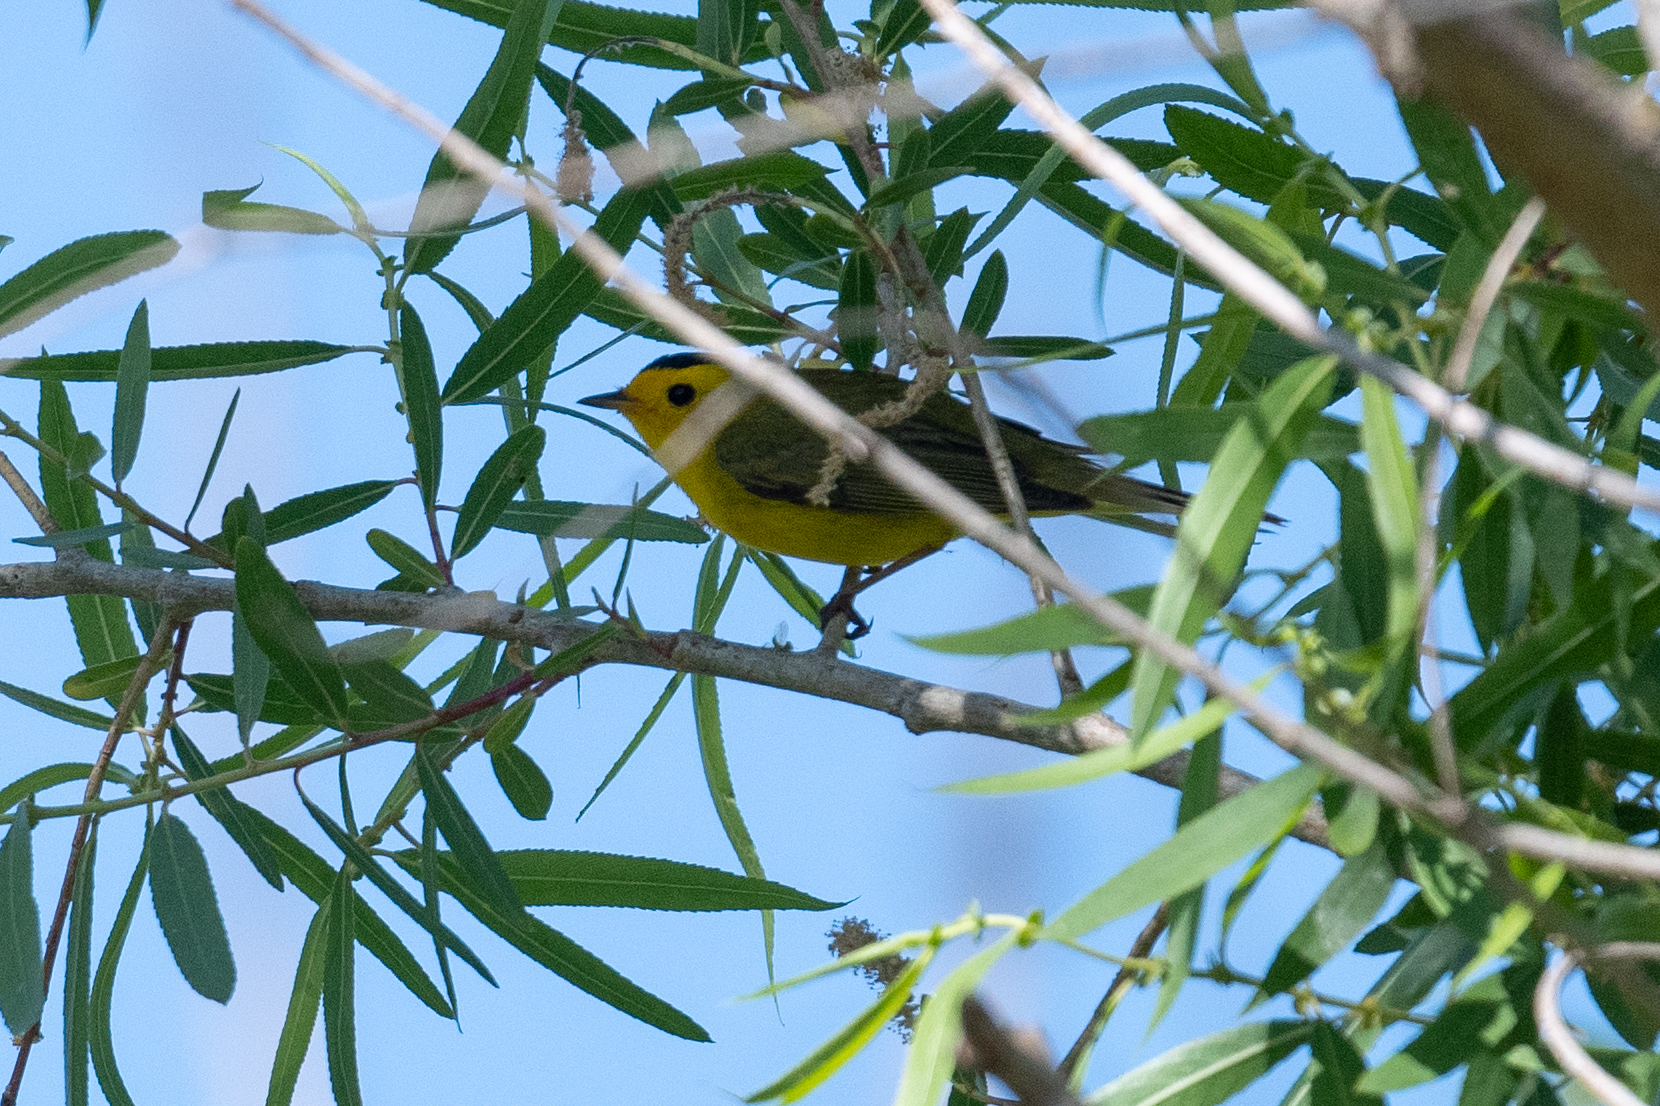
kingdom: Animalia
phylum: Chordata
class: Aves
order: Passeriformes
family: Parulidae
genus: Cardellina
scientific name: Cardellina pusilla
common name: Wilson's warbler
